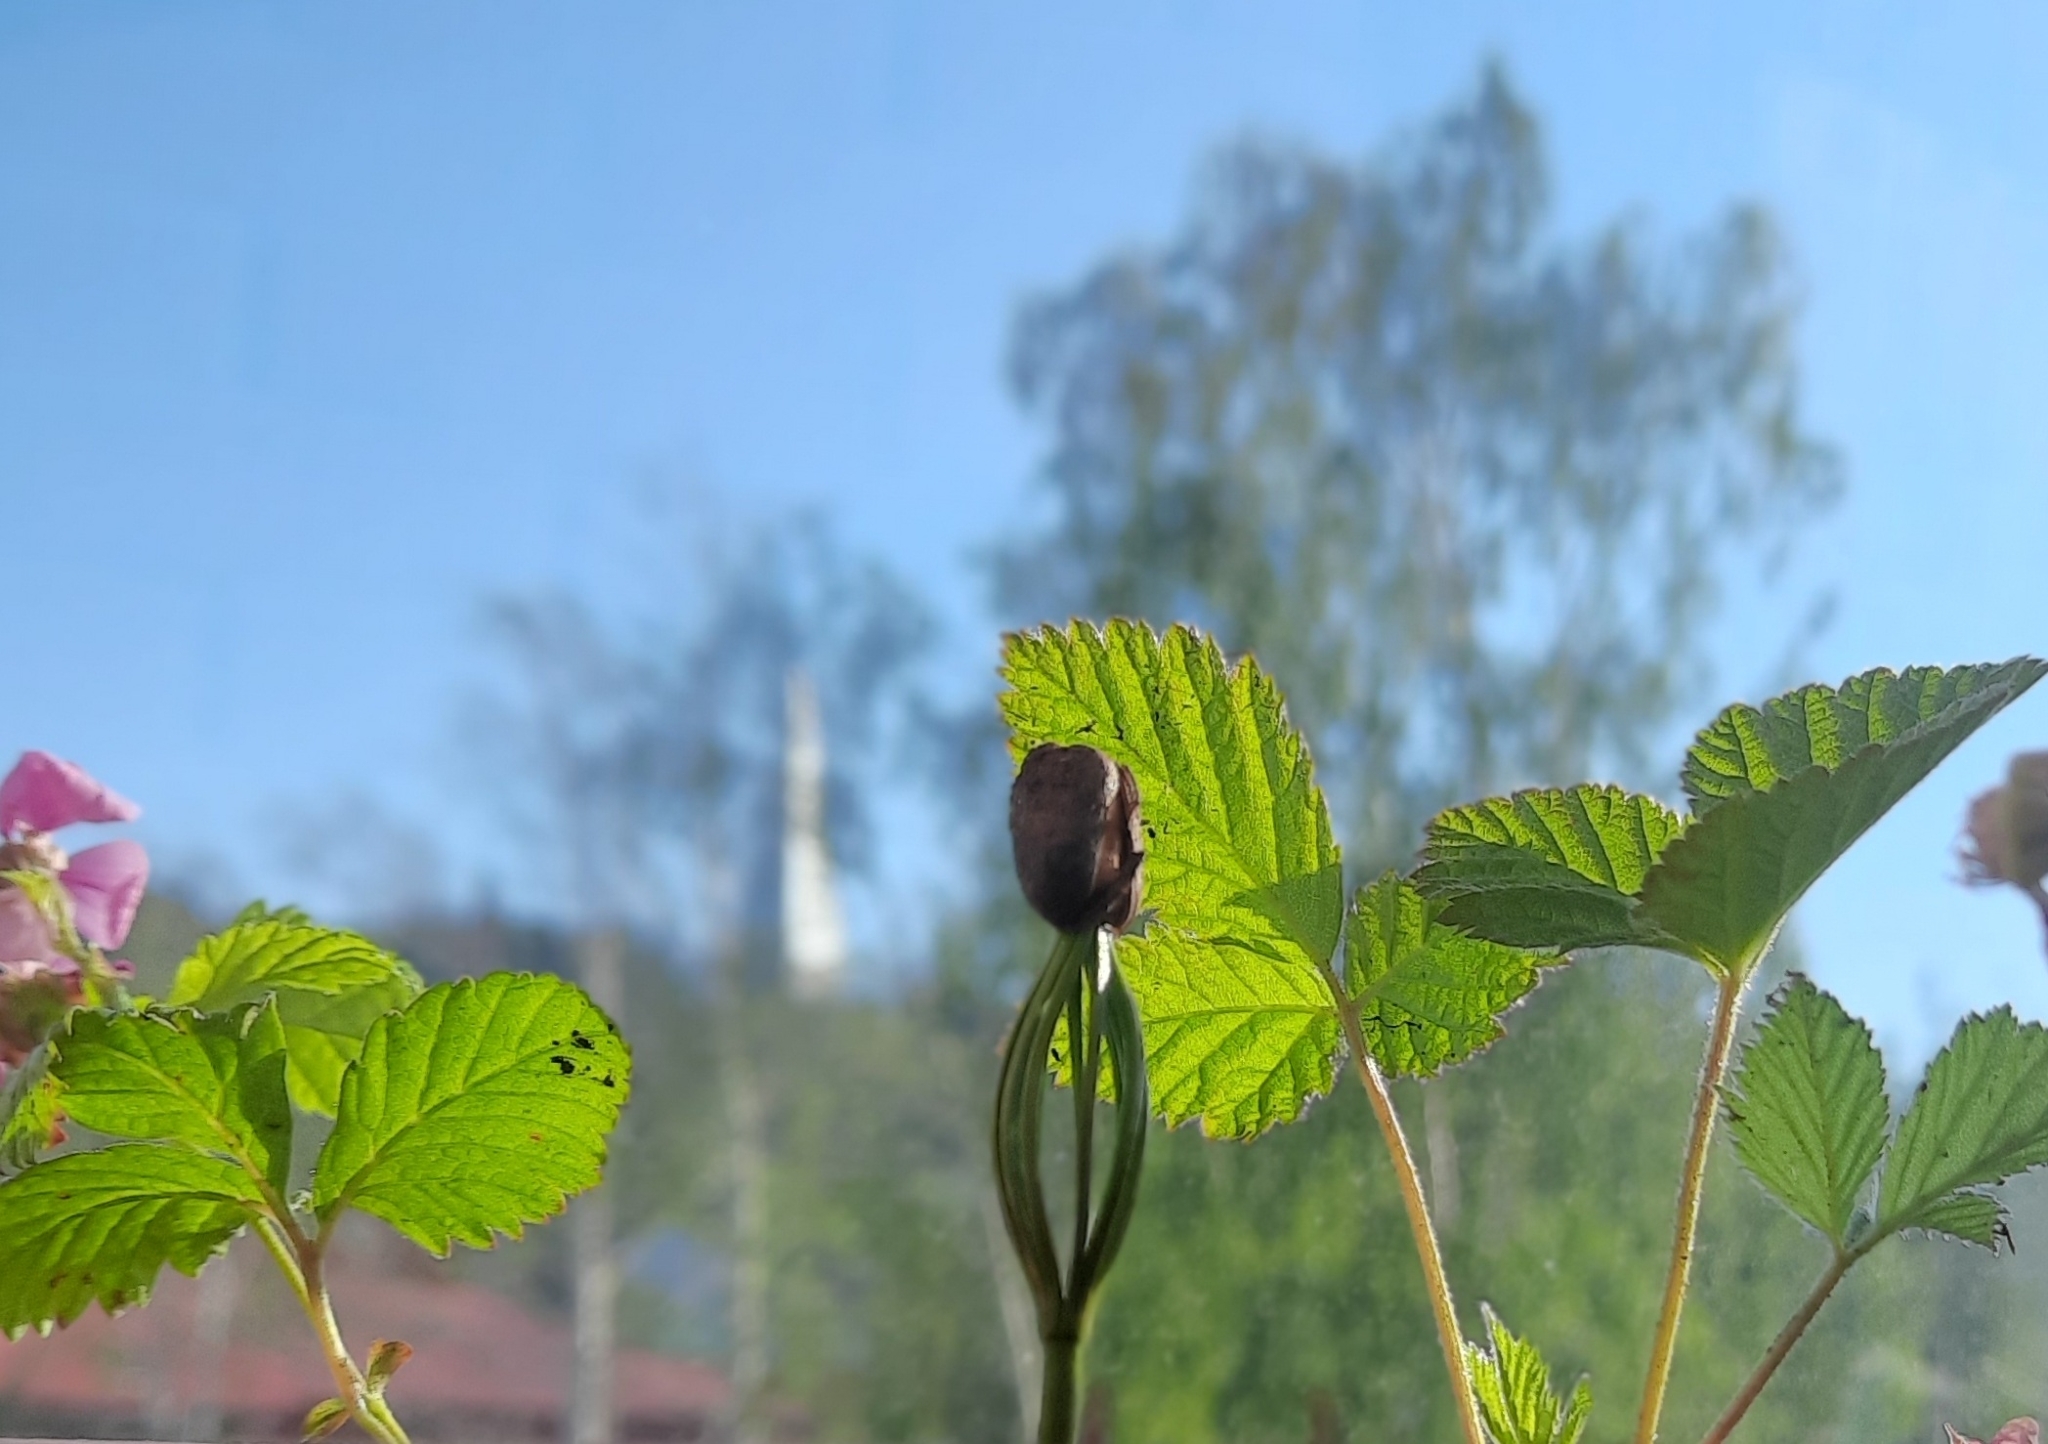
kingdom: Plantae
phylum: Tracheophyta
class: Pinopsida
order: Pinales
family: Pinaceae
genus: Pinus
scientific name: Pinus sibirica
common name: Siberian pine
